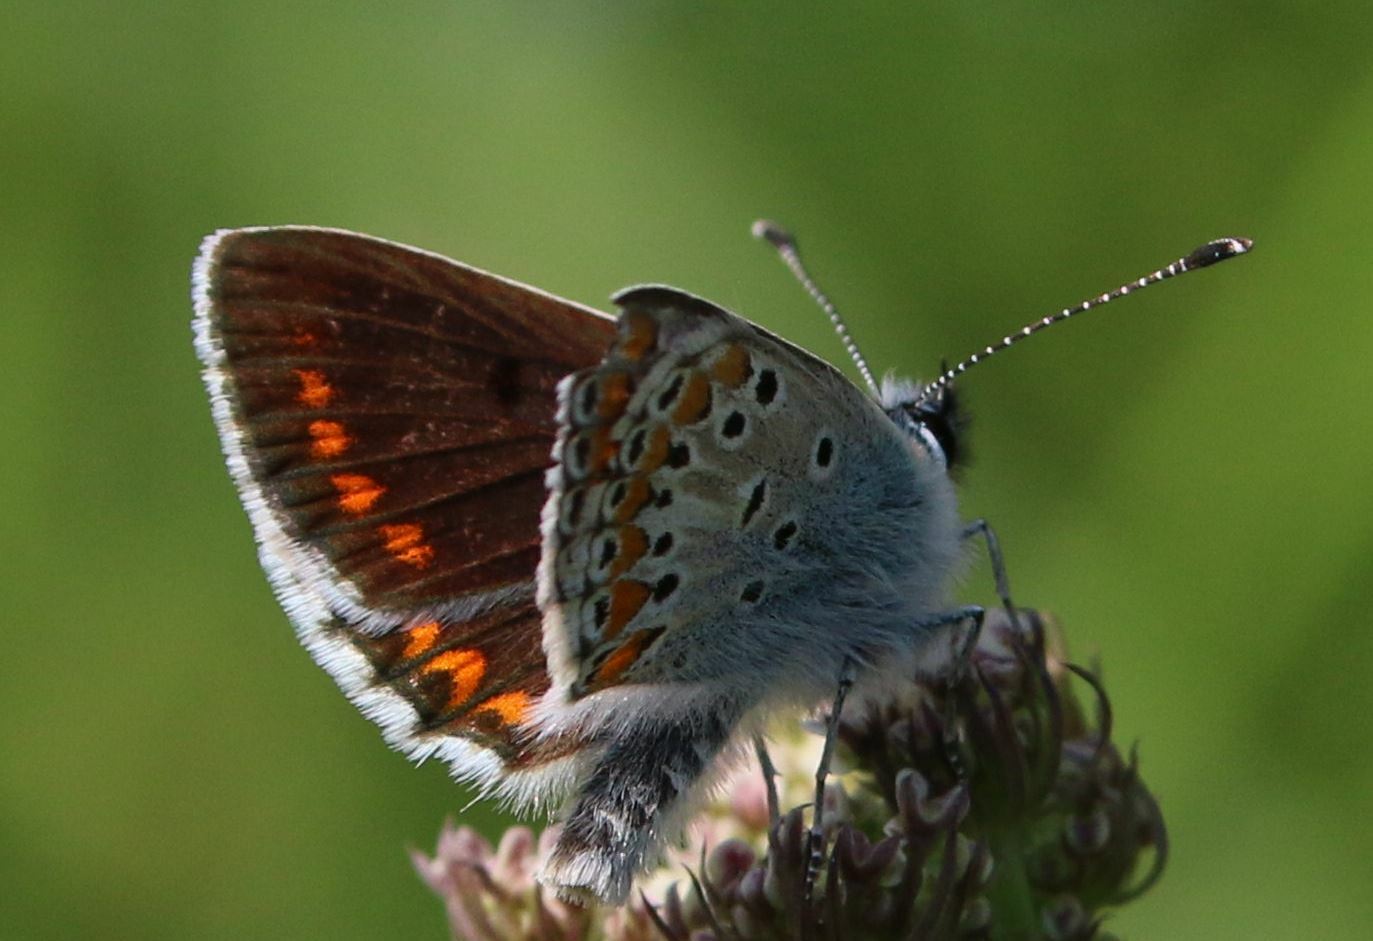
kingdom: Animalia
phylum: Arthropoda
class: Insecta
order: Lepidoptera
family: Lycaenidae
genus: Aricia
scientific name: Aricia agestis
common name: Brown argus
